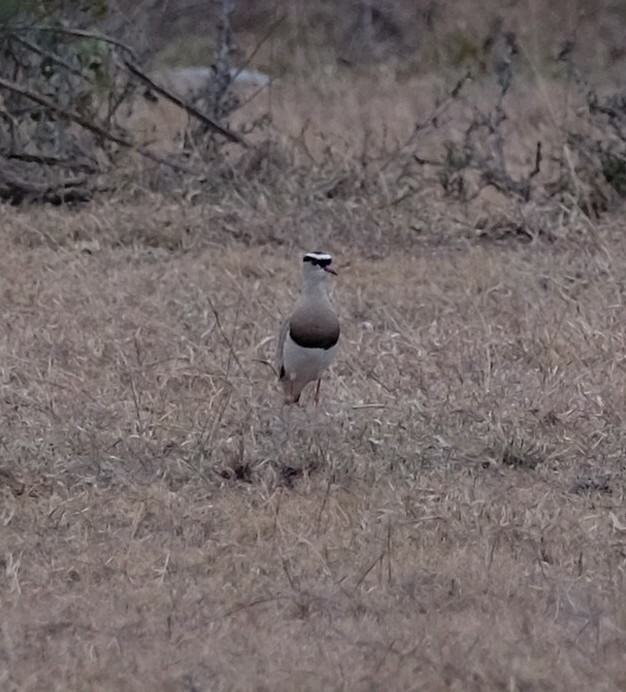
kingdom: Animalia
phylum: Chordata
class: Aves
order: Charadriiformes
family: Charadriidae
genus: Vanellus
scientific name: Vanellus coronatus
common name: Crowned lapwing
